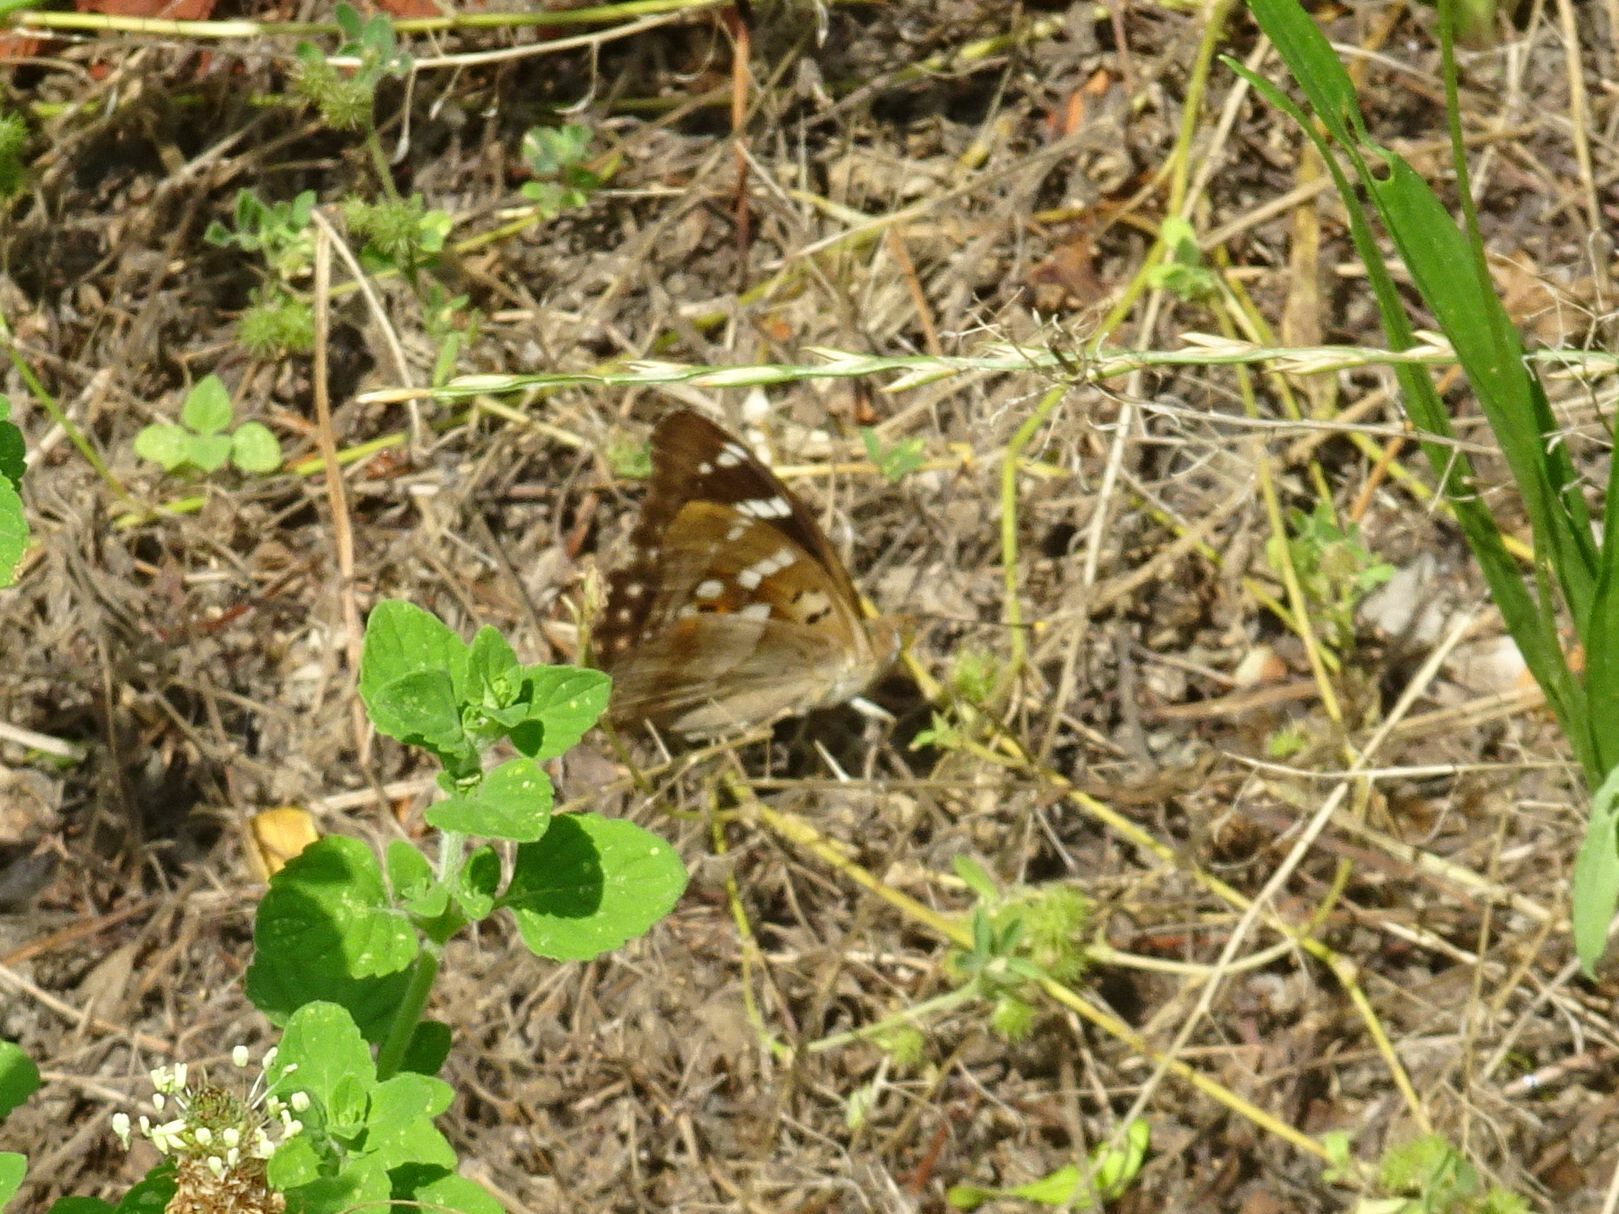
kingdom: Animalia
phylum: Arthropoda
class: Insecta
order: Lepidoptera
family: Nymphalidae
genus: Apatura
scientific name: Apatura ilia
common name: Lesser purple emperor
